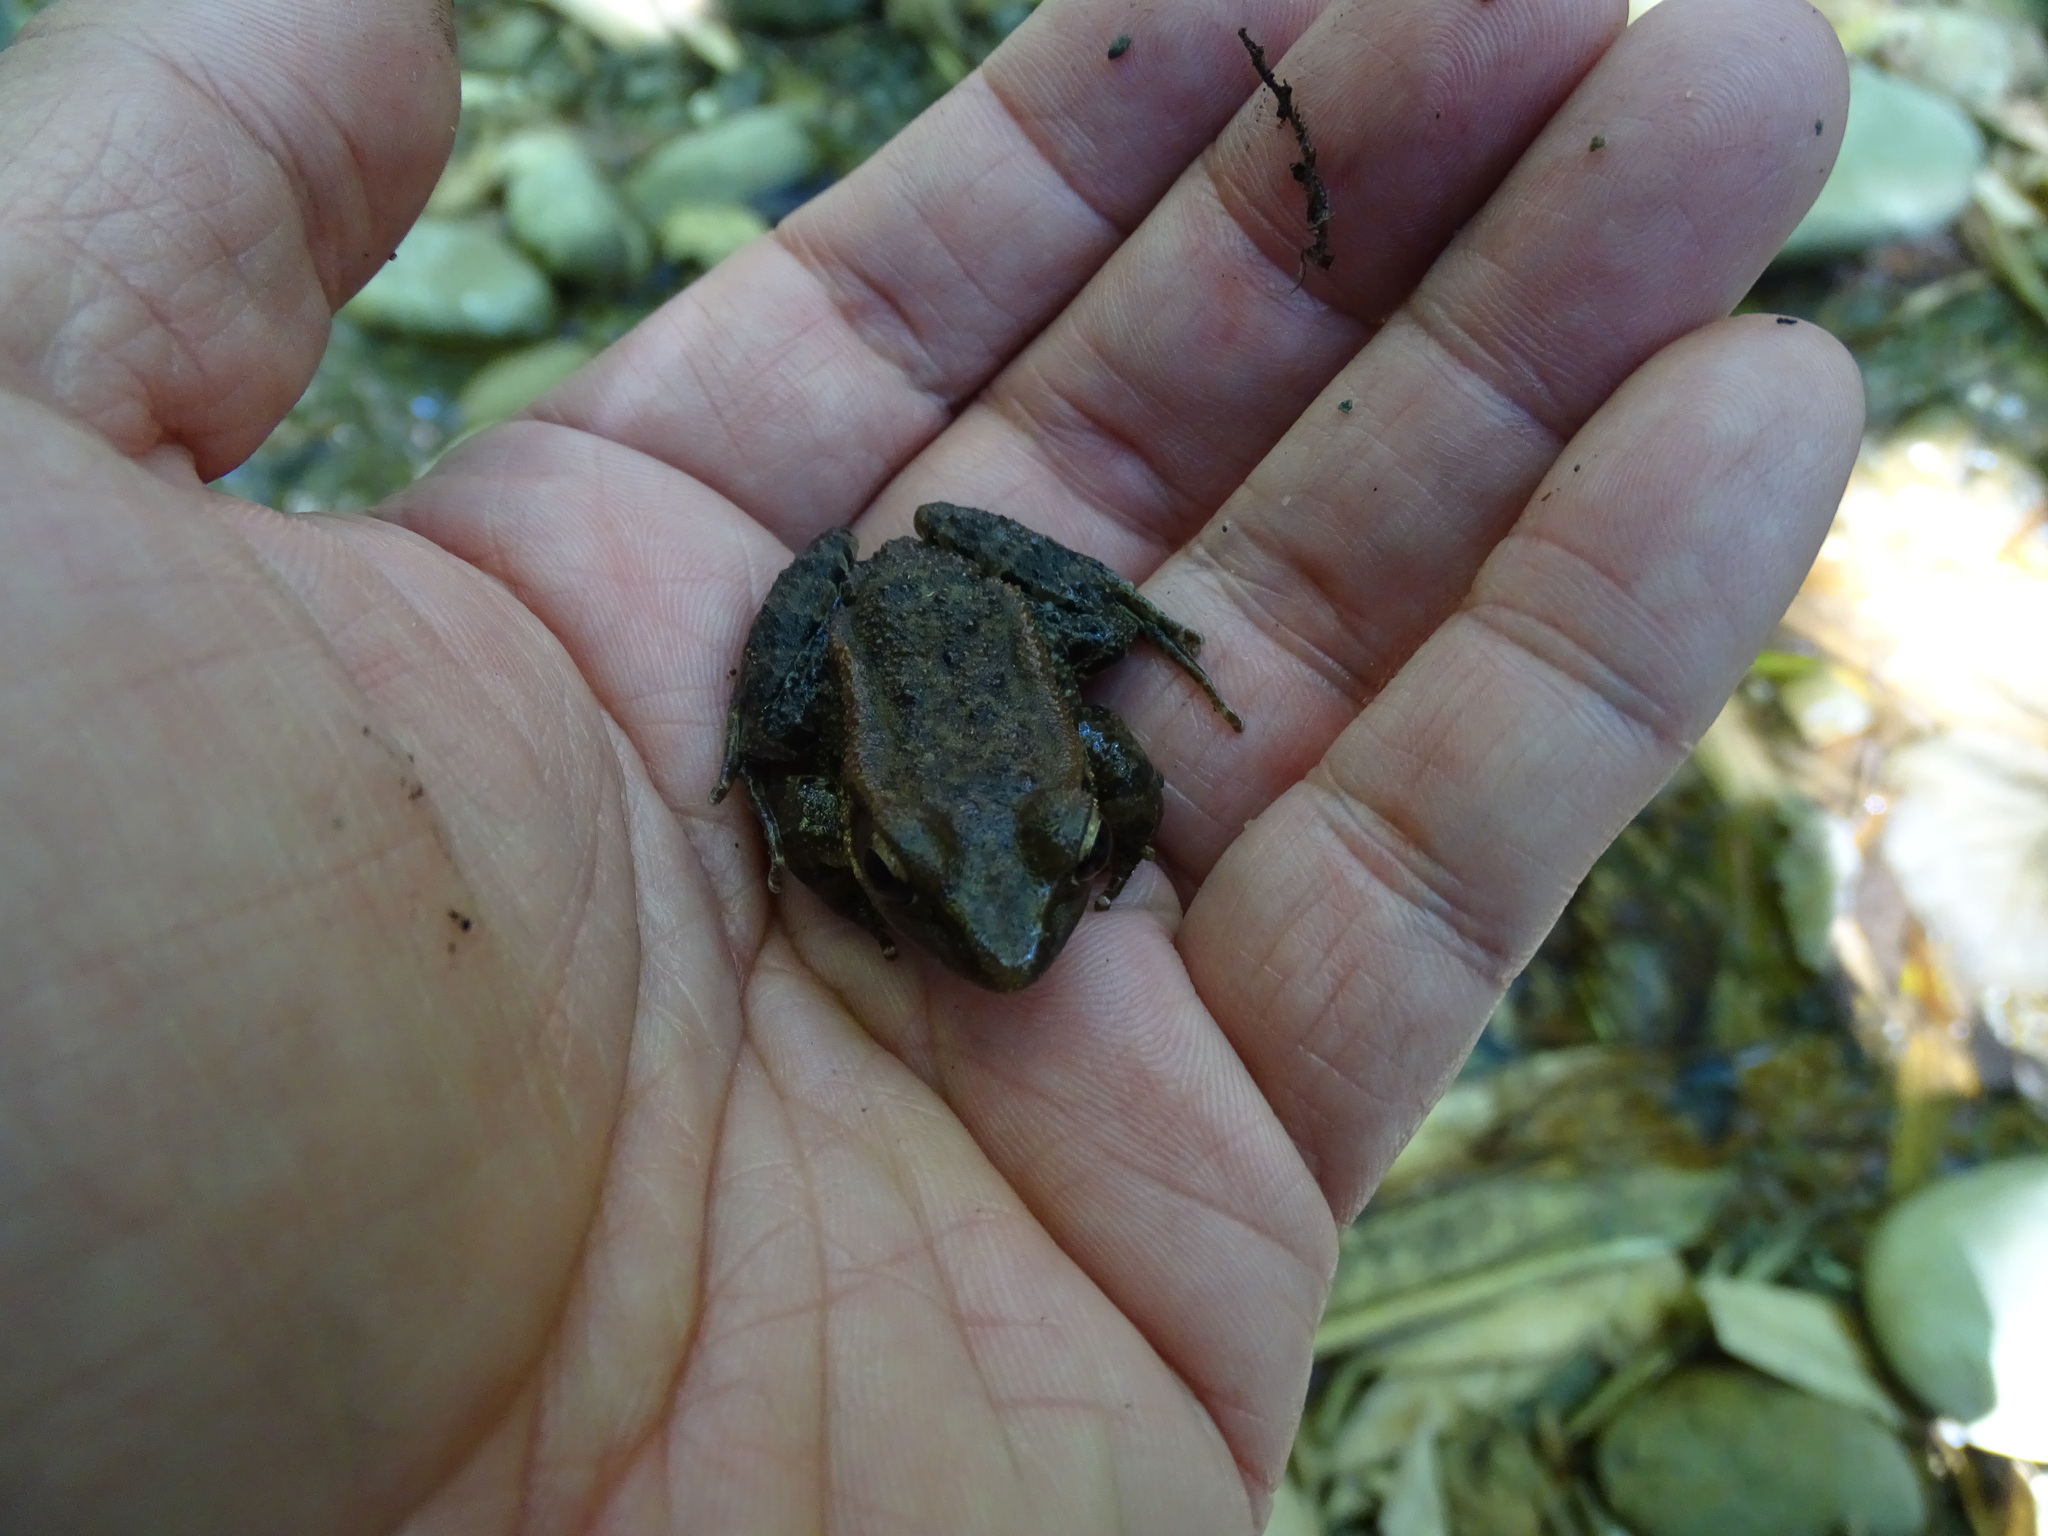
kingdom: Animalia
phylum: Chordata
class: Amphibia
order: Anura
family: Ranidae
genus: Hylarana
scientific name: Hylarana latouchii
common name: Broad-folded frog
